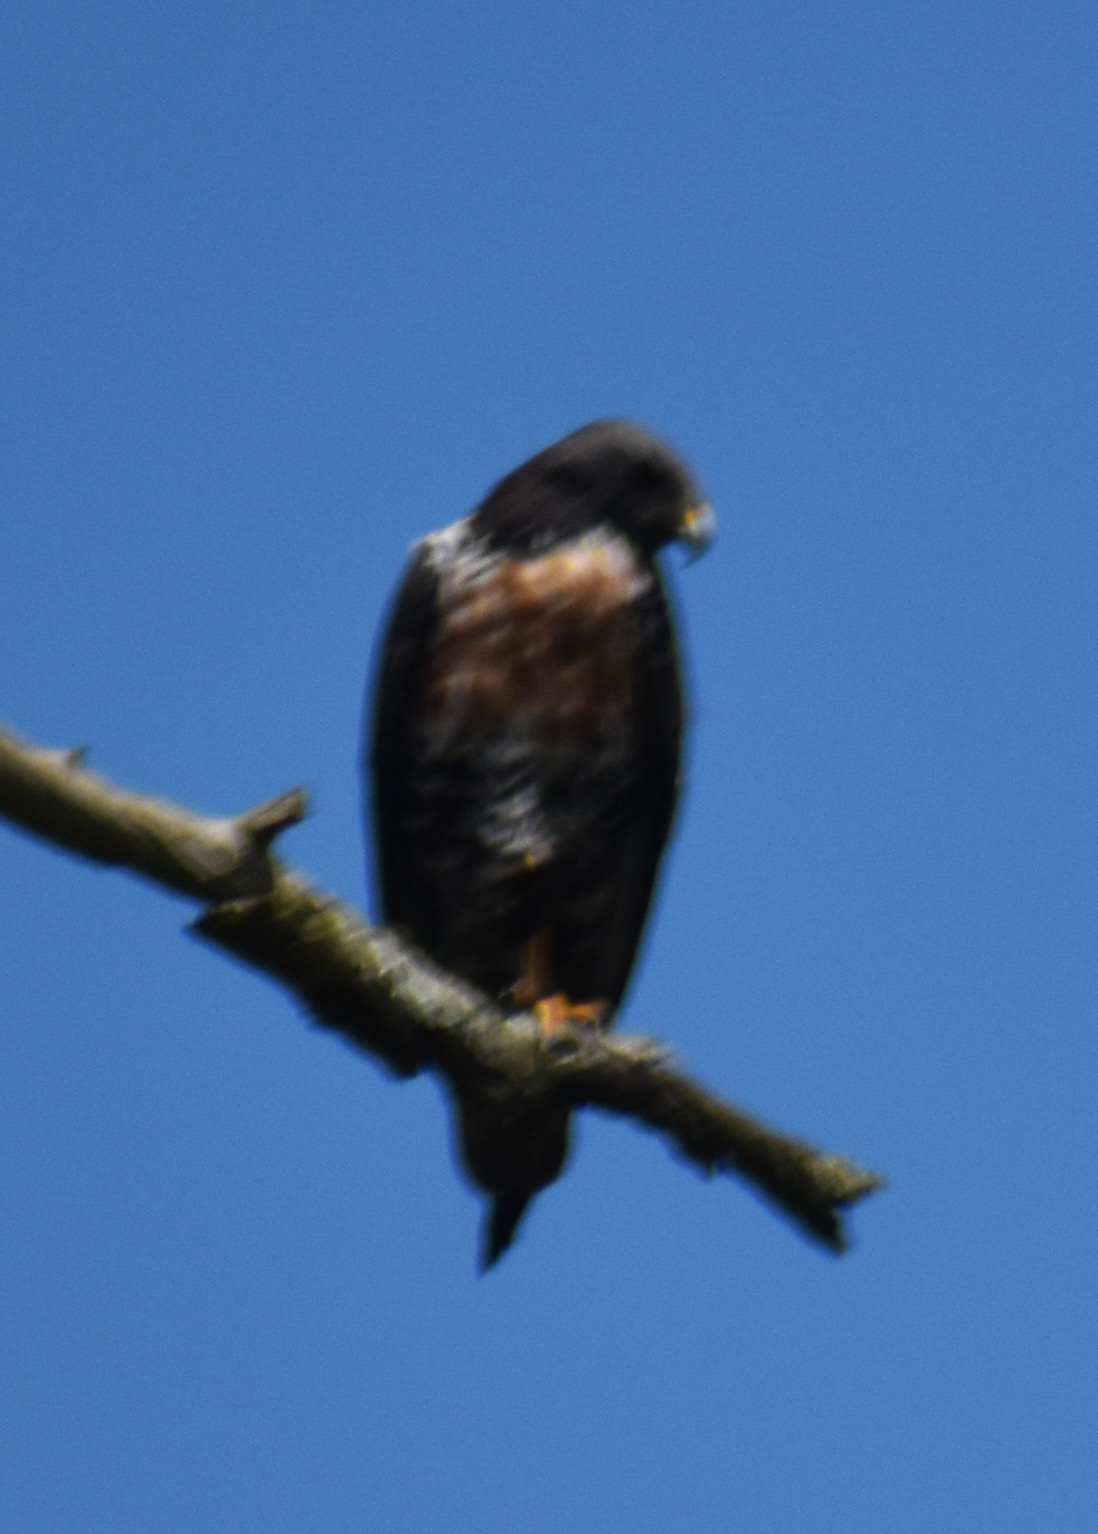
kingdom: Animalia
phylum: Chordata
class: Aves
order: Accipitriformes
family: Accipitridae
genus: Buteo
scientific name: Buteo rufofuscus
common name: Jackal buzzard
